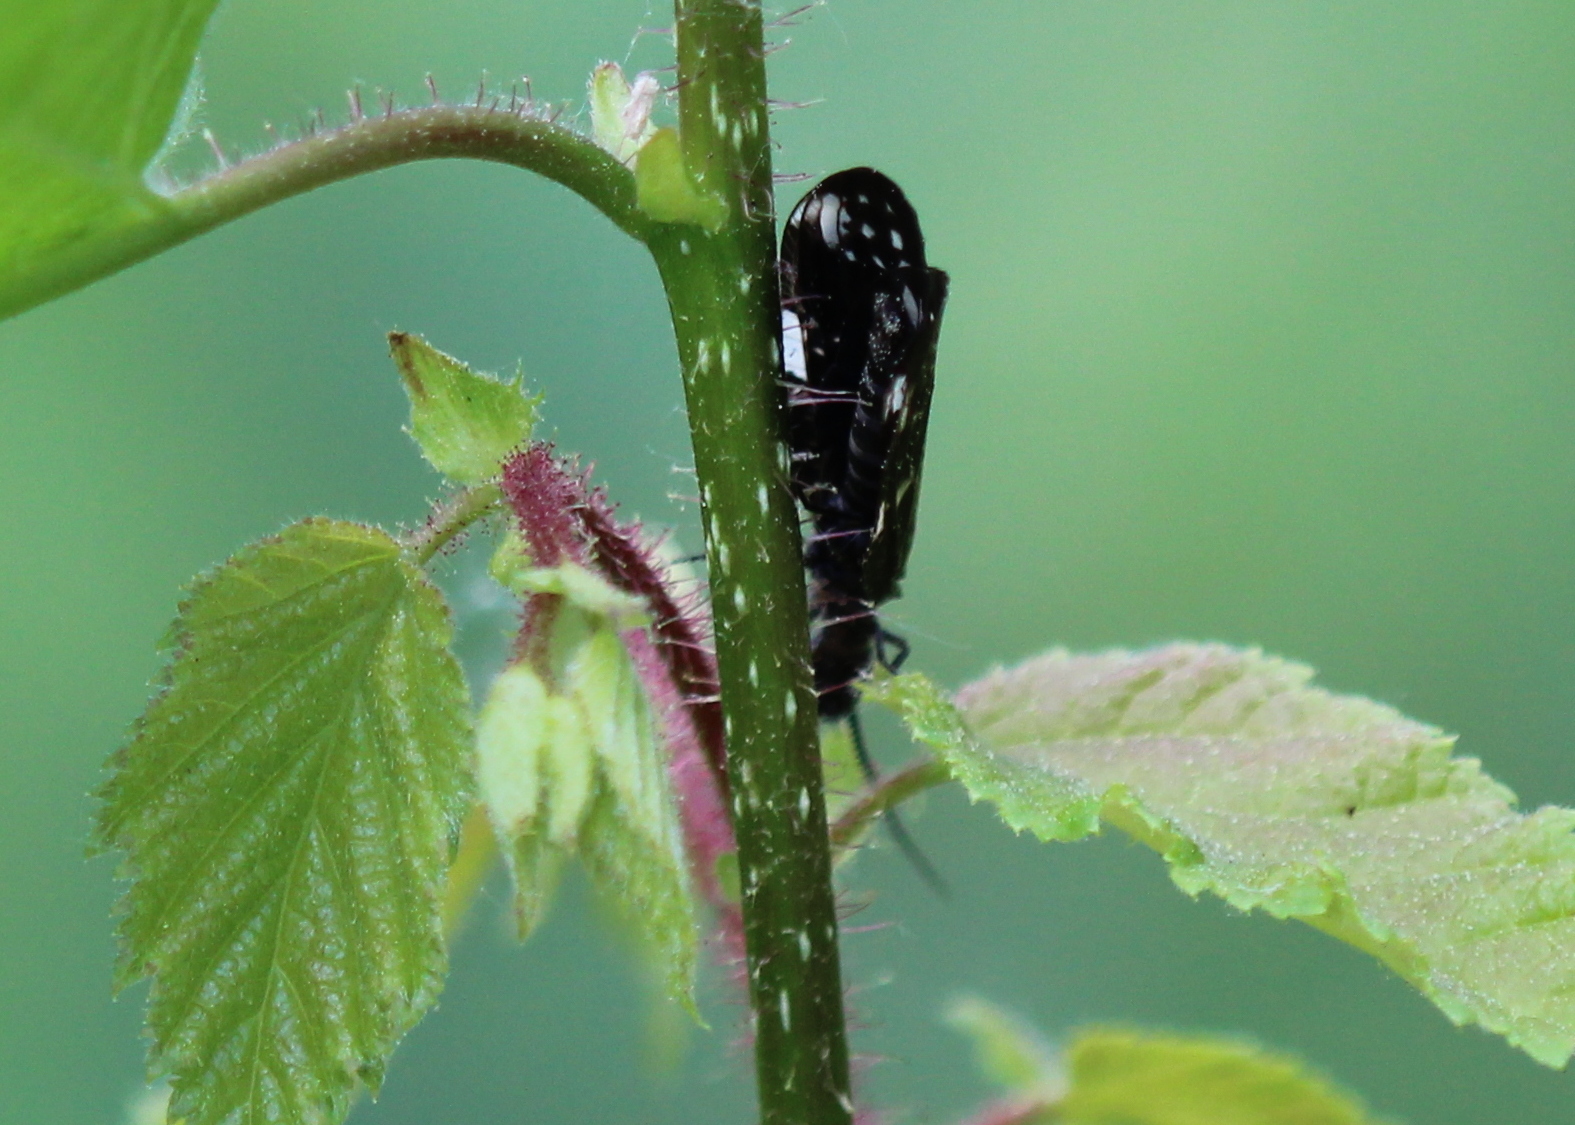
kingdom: Animalia
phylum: Arthropoda
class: Insecta
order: Megaloptera
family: Corydalidae
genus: Nigronia
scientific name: Nigronia serricornis
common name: Serrate dark fishfly
